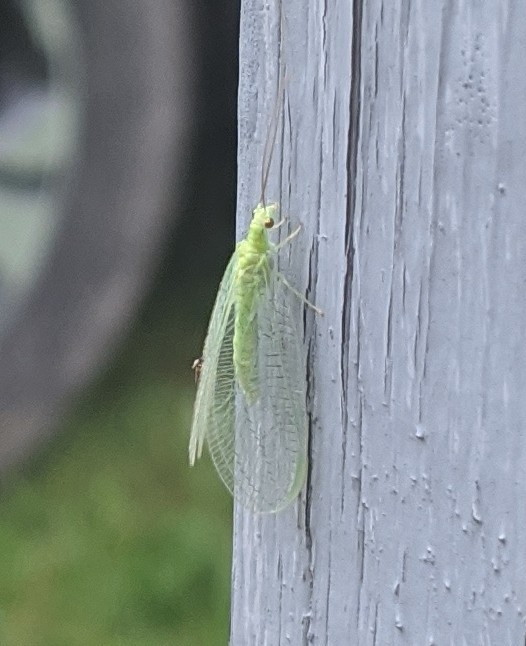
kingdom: Animalia
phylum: Arthropoda
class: Insecta
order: Neuroptera
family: Chrysopidae
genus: Chrysopa
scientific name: Chrysopa nigricornis
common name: Black-horned green lacewing
